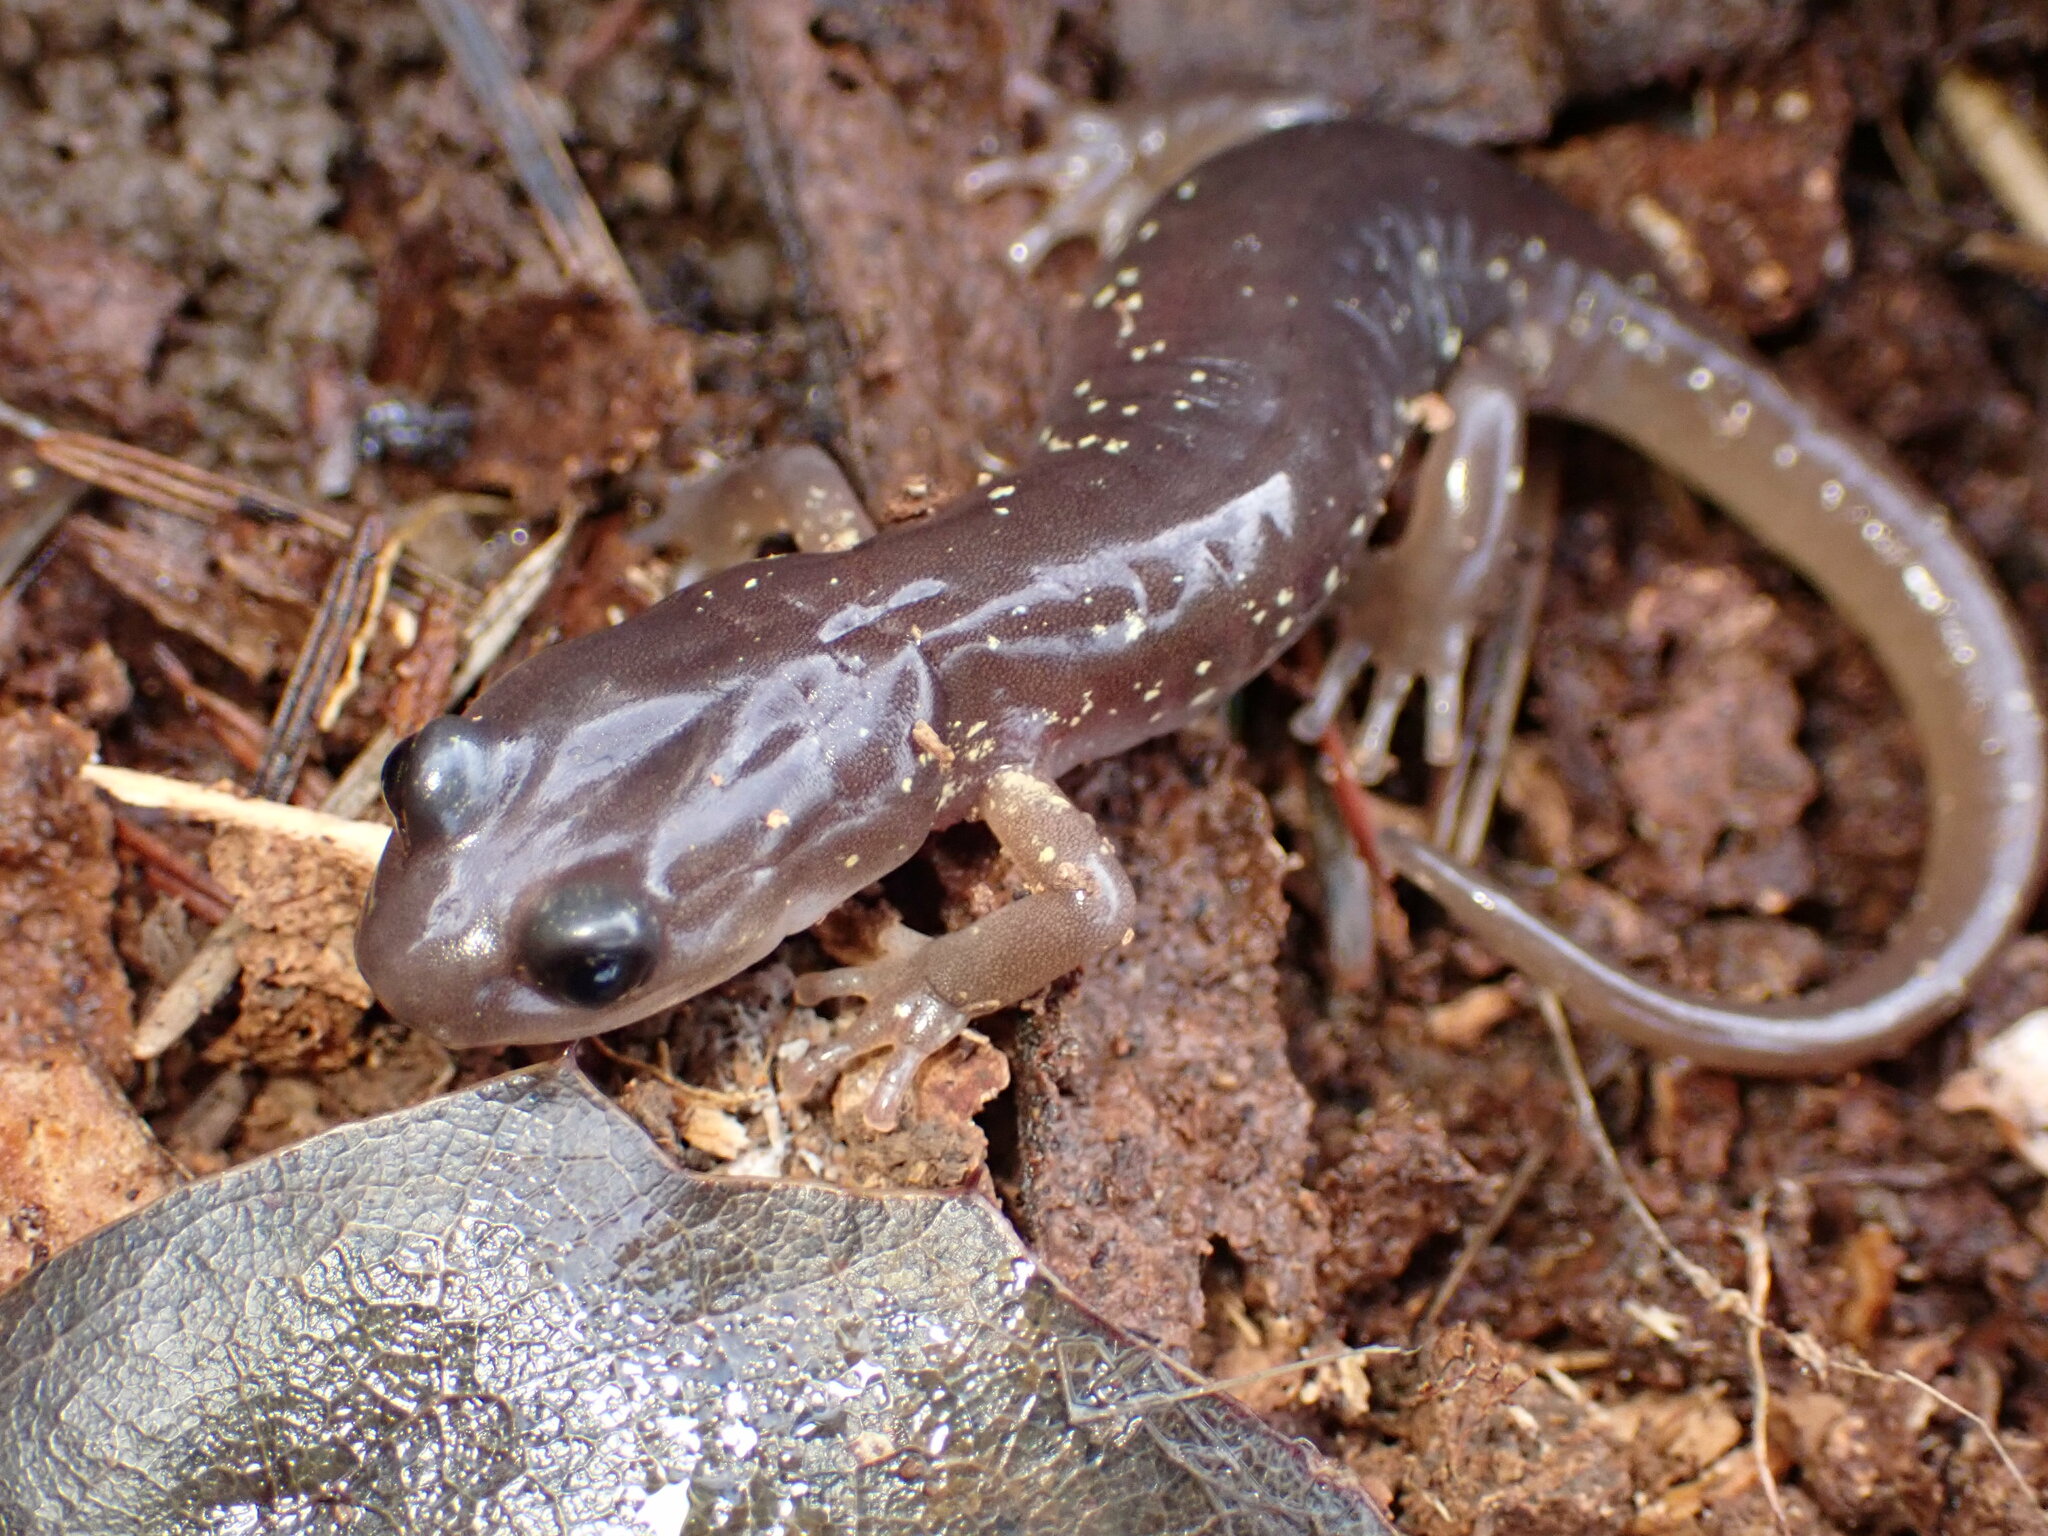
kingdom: Animalia
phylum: Chordata
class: Amphibia
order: Caudata
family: Plethodontidae
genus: Aneides
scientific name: Aneides lugubris
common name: Arboreal salamander
